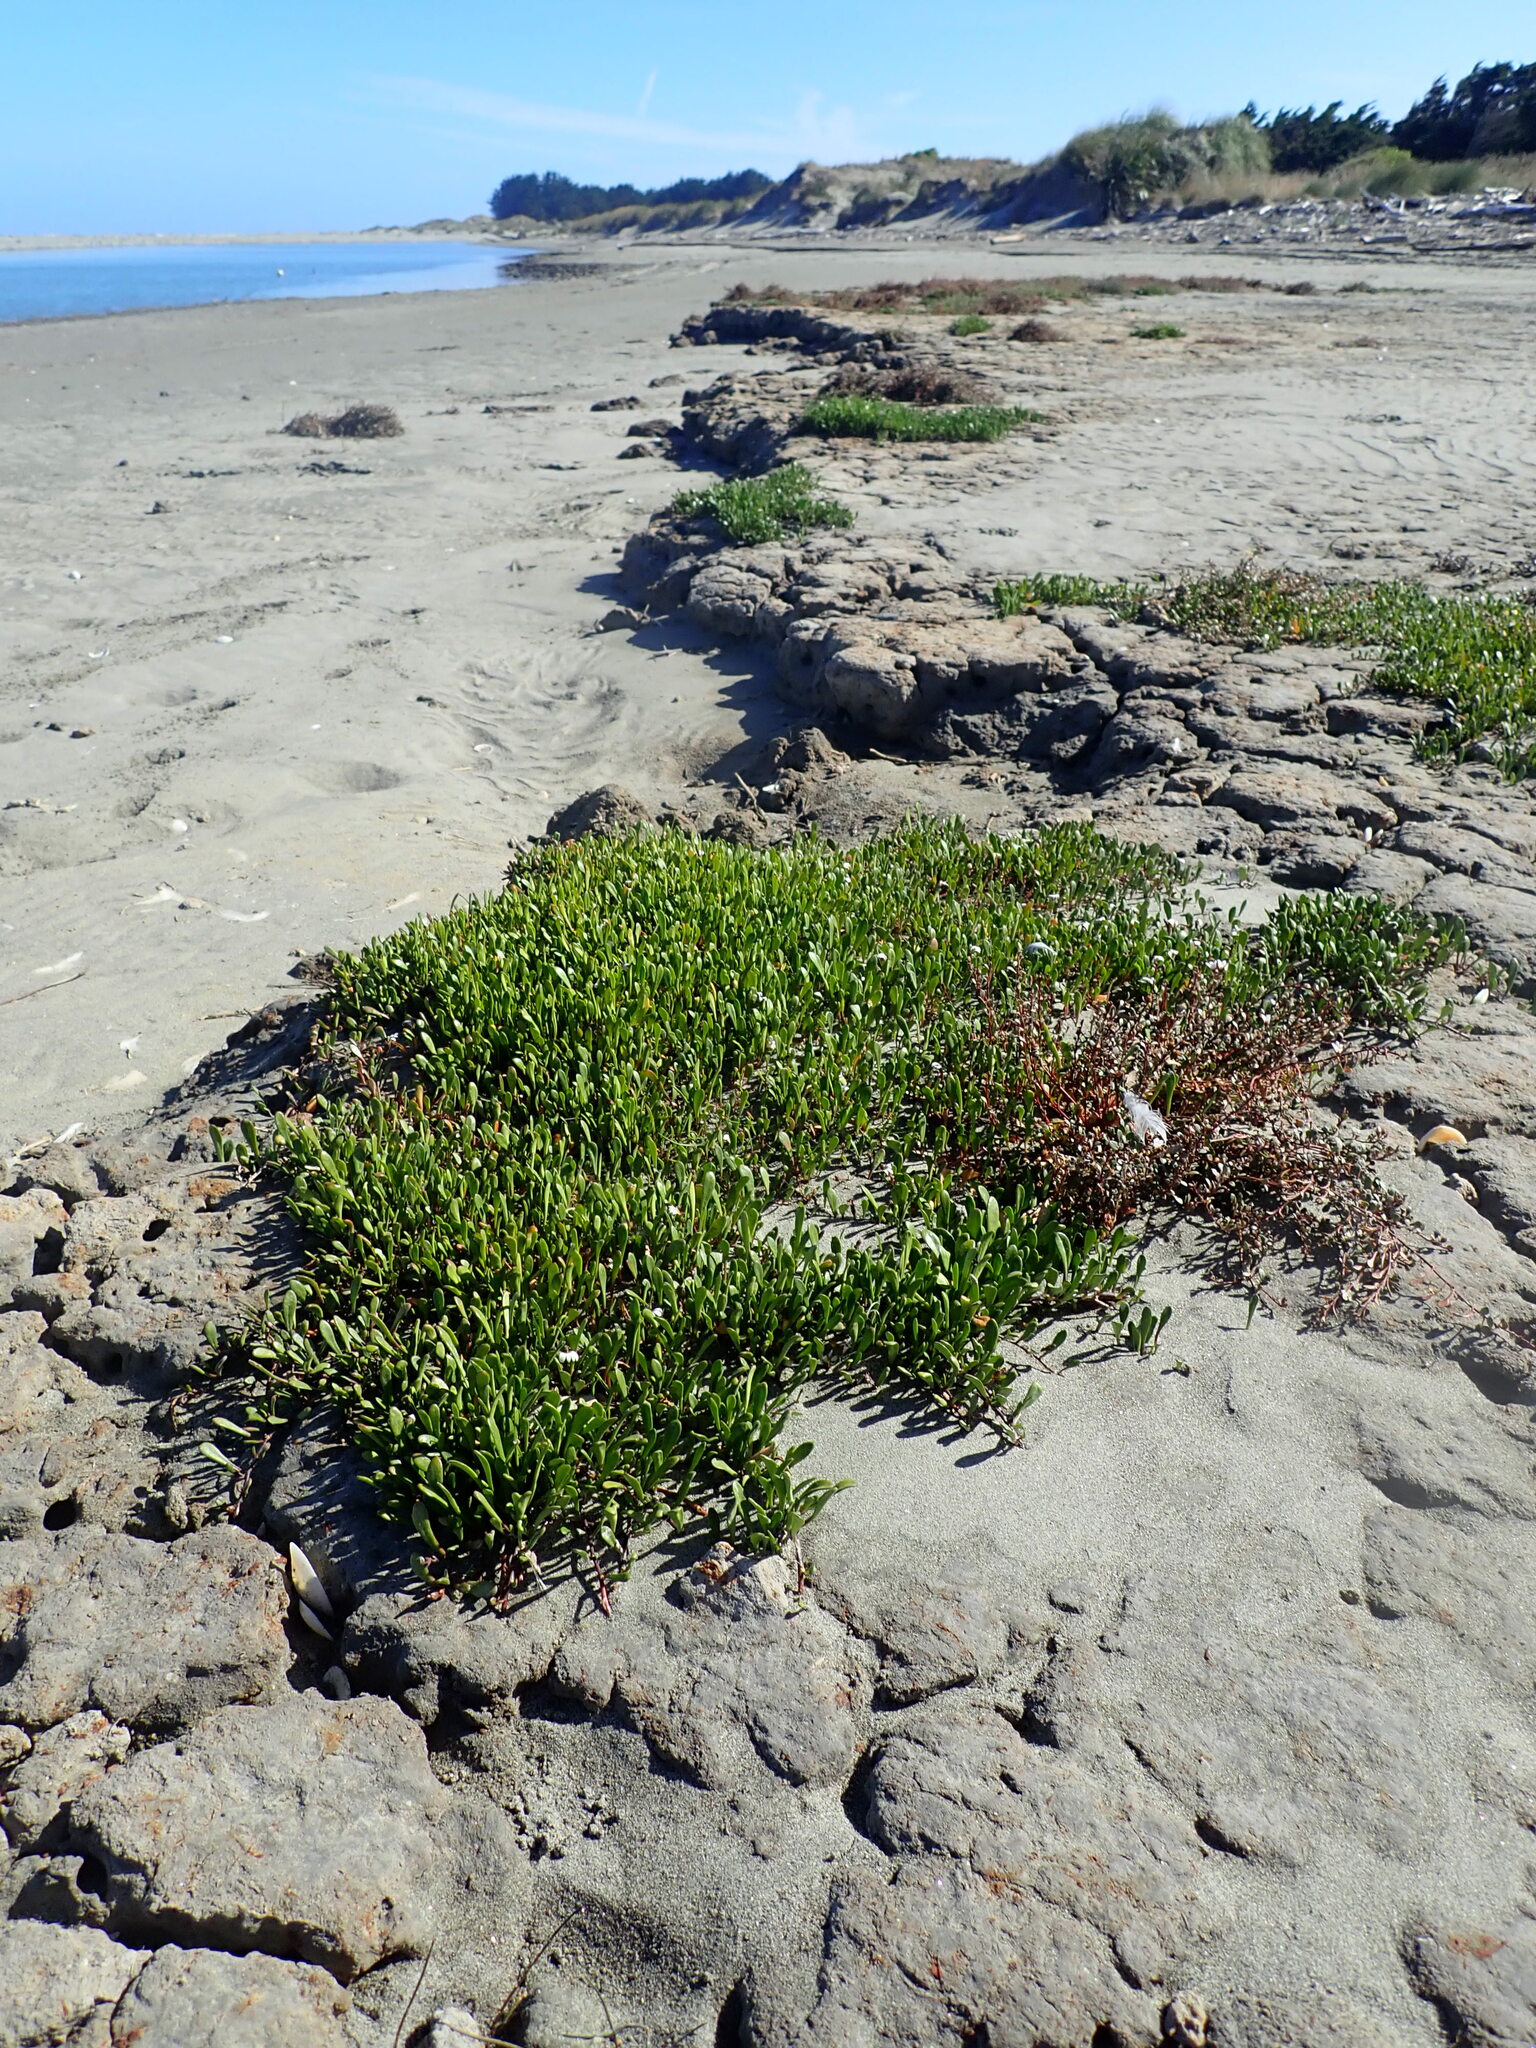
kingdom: Plantae
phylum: Tracheophyta
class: Magnoliopsida
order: Asterales
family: Goodeniaceae
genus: Goodenia
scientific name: Goodenia radicans
